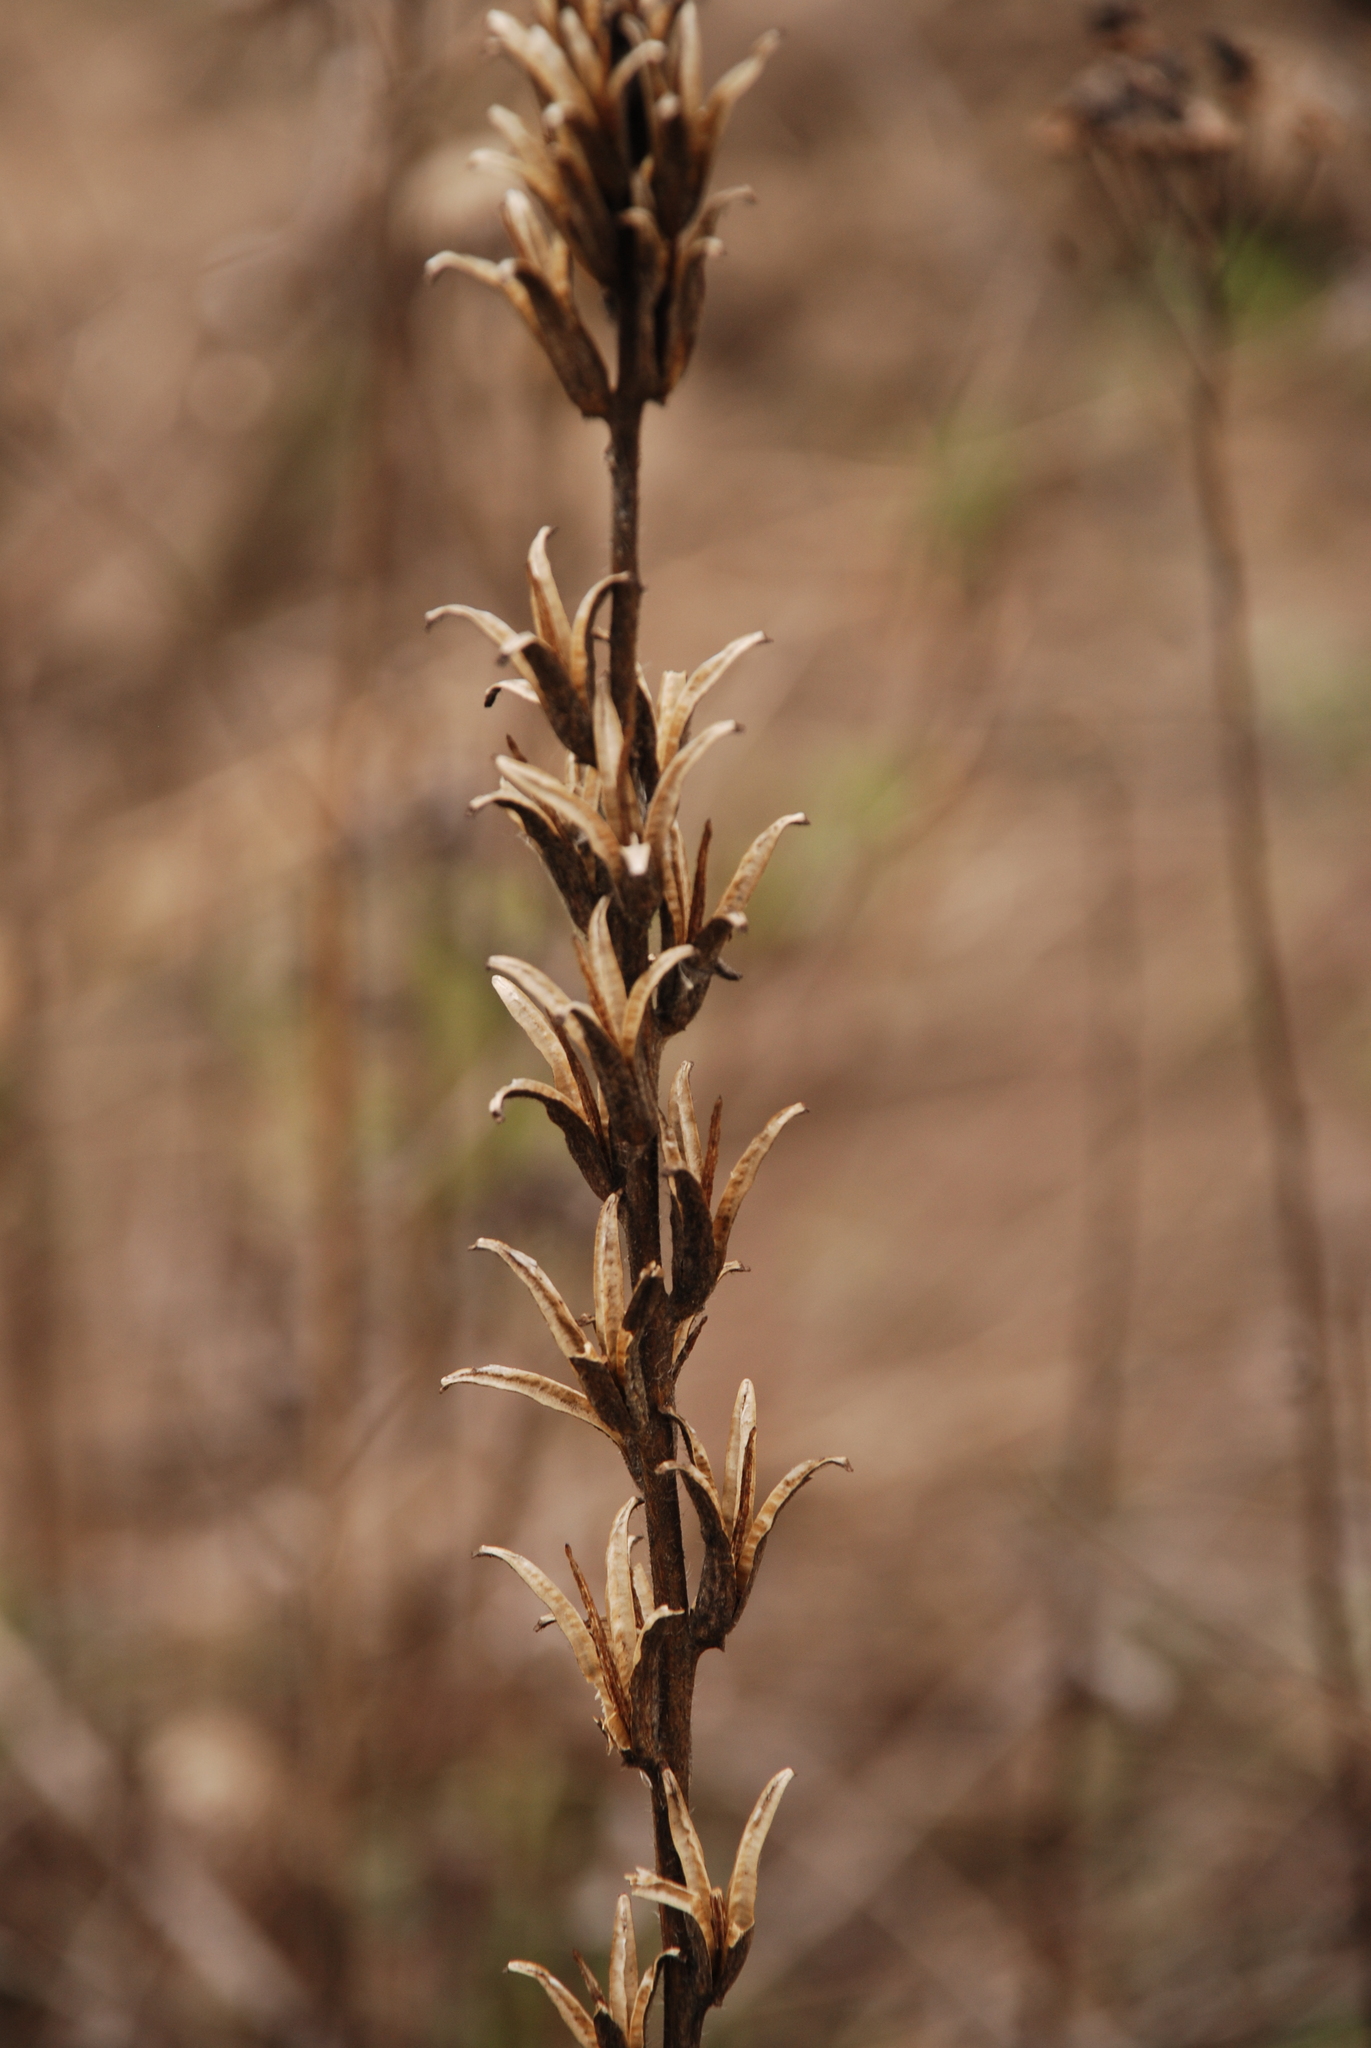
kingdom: Plantae
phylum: Tracheophyta
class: Magnoliopsida
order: Myrtales
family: Onagraceae
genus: Oenothera
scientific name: Oenothera
